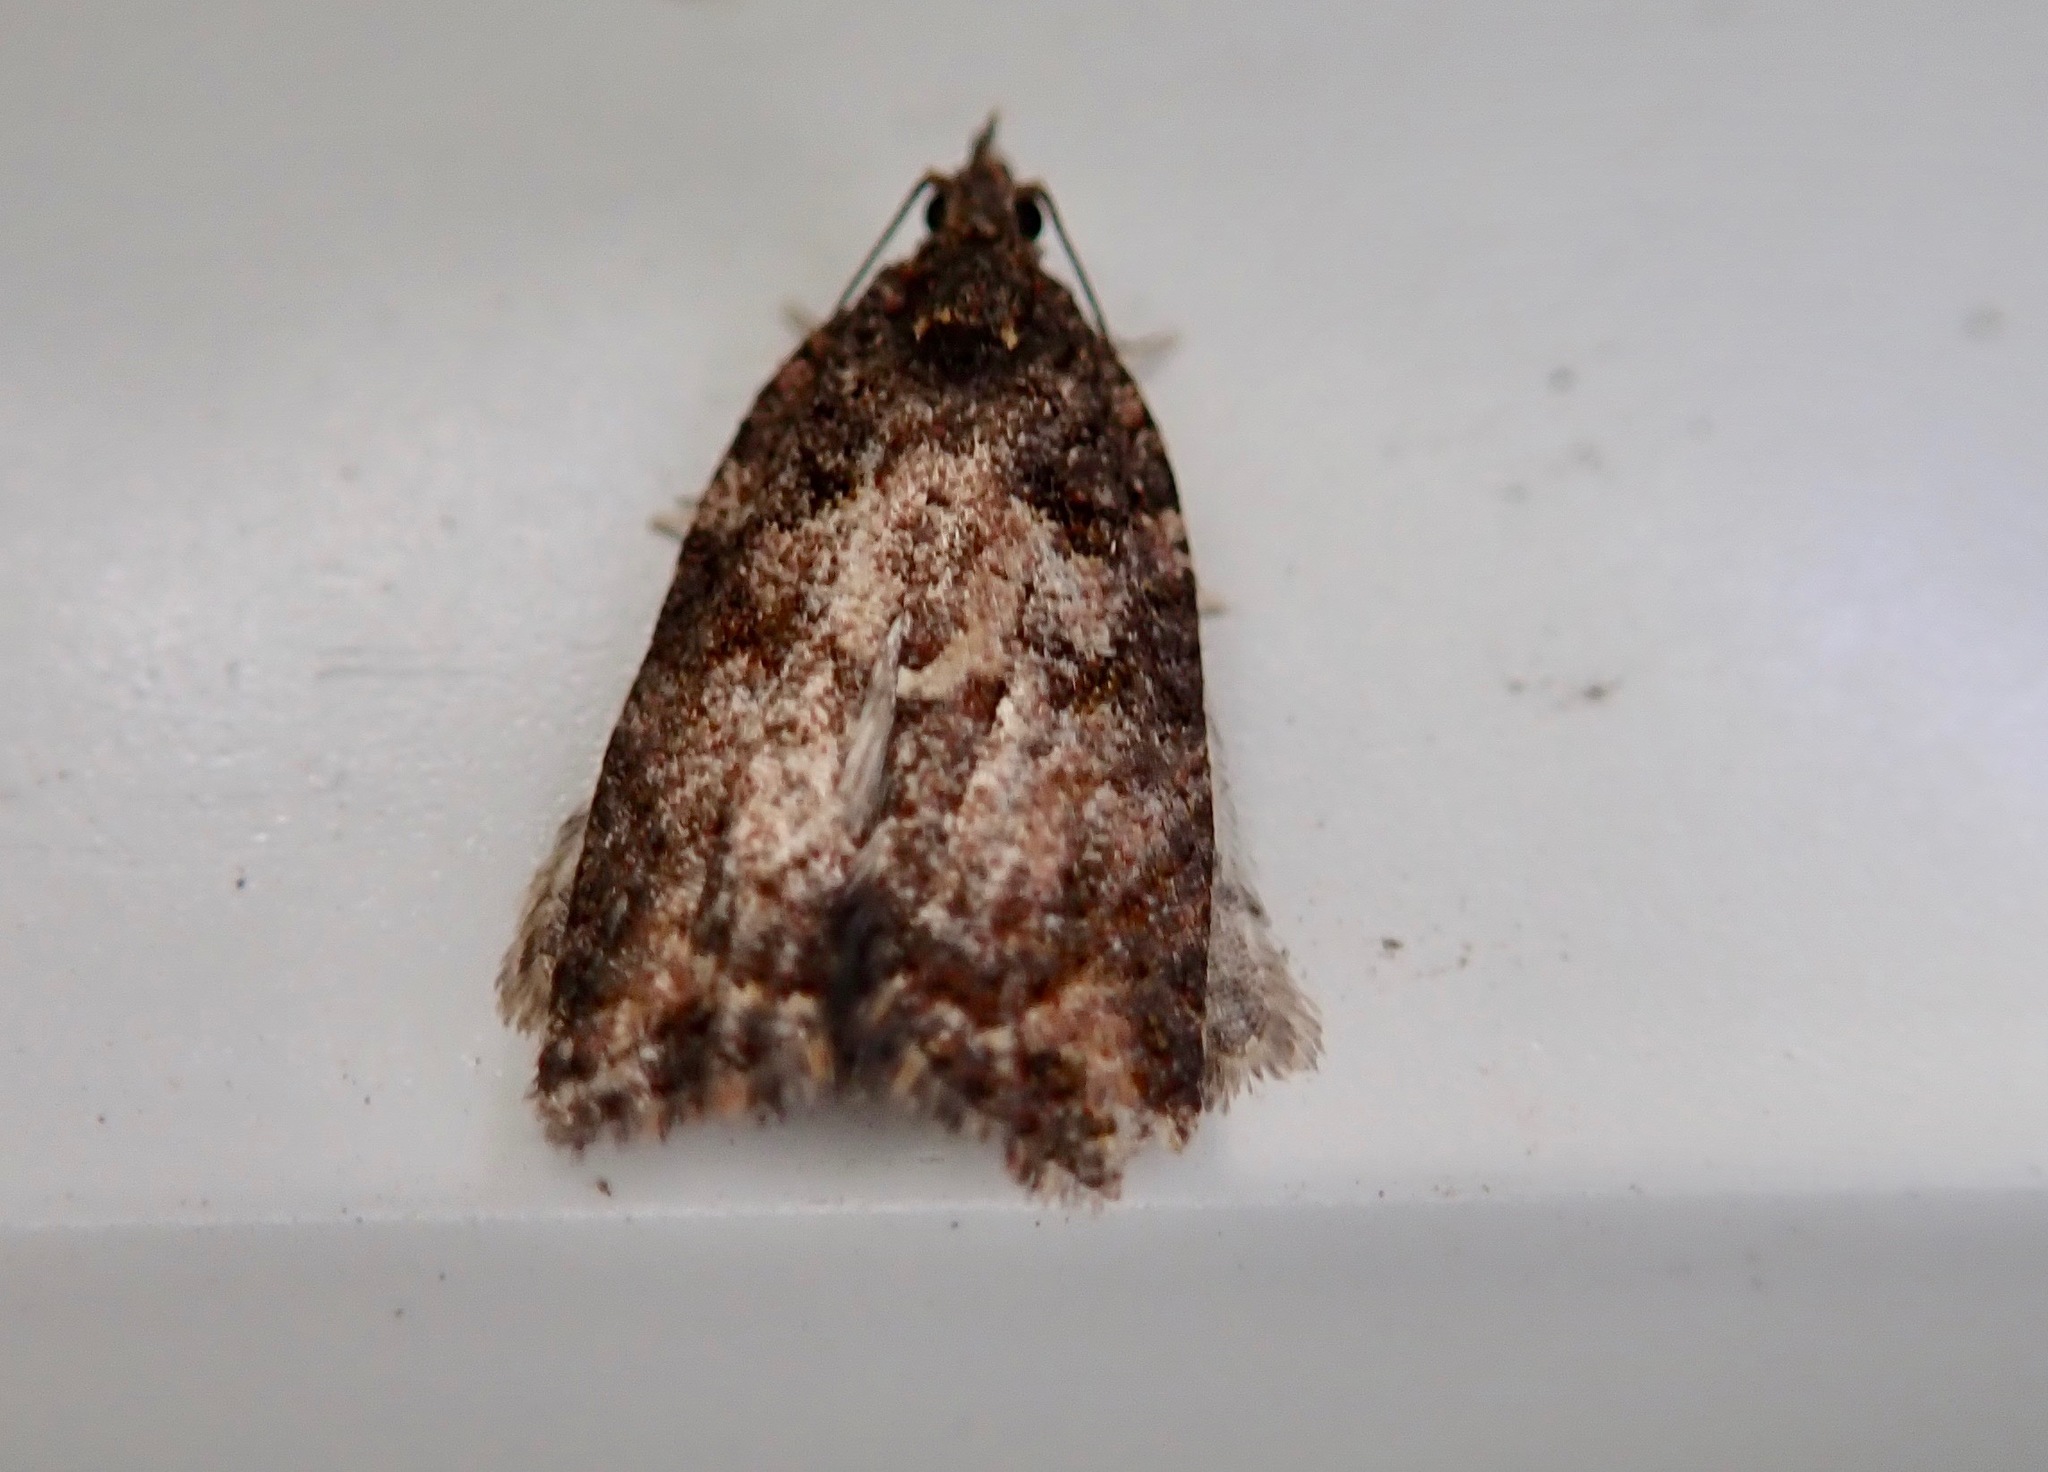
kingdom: Animalia
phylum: Arthropoda
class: Insecta
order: Lepidoptera
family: Tortricidae
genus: Capua
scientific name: Capua intractana
